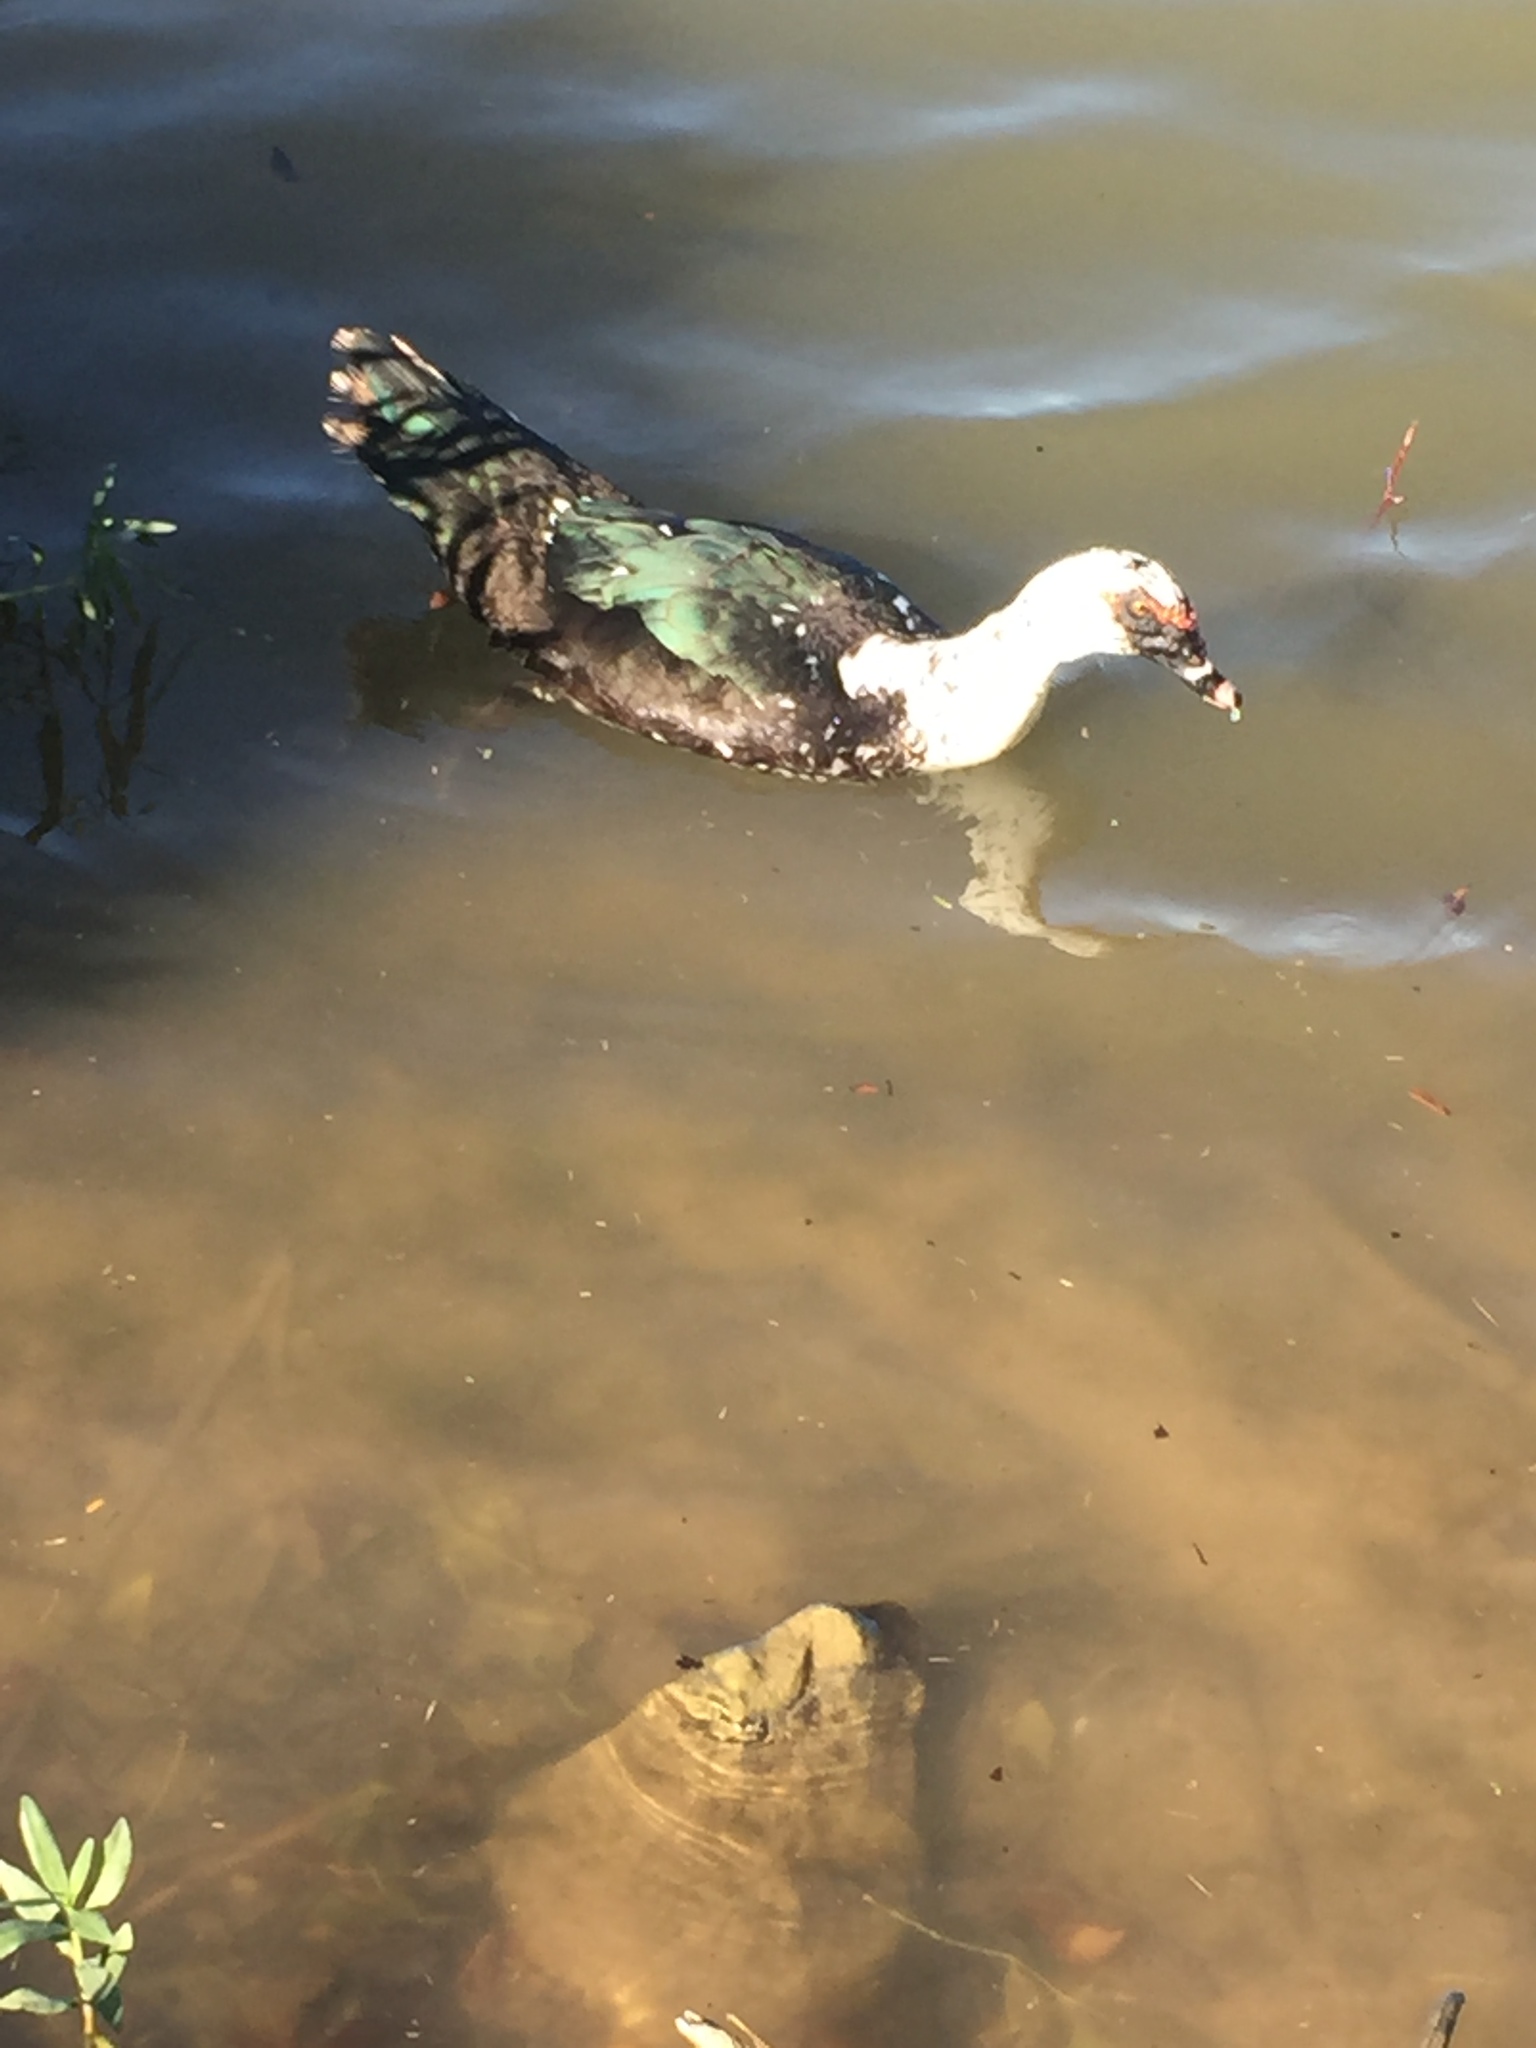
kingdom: Animalia
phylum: Chordata
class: Aves
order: Anseriformes
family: Anatidae
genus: Cairina
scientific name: Cairina moschata
